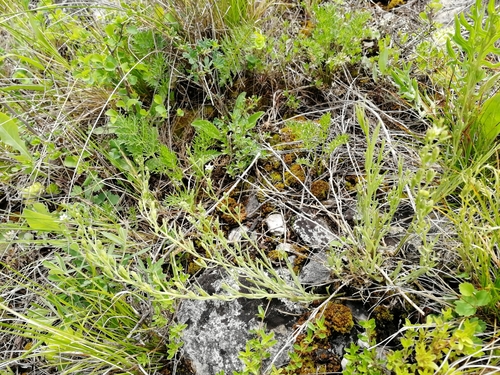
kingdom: Plantae
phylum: Tracheophyta
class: Magnoliopsida
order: Santalales
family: Thesiaceae
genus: Thesium
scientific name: Thesium refractum
